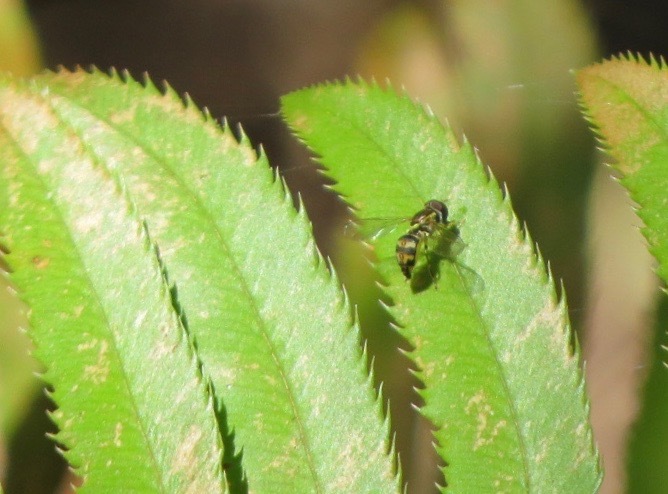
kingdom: Animalia
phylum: Arthropoda
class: Insecta
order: Diptera
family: Syrphidae
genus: Toxomerus
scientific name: Toxomerus occidentalis
